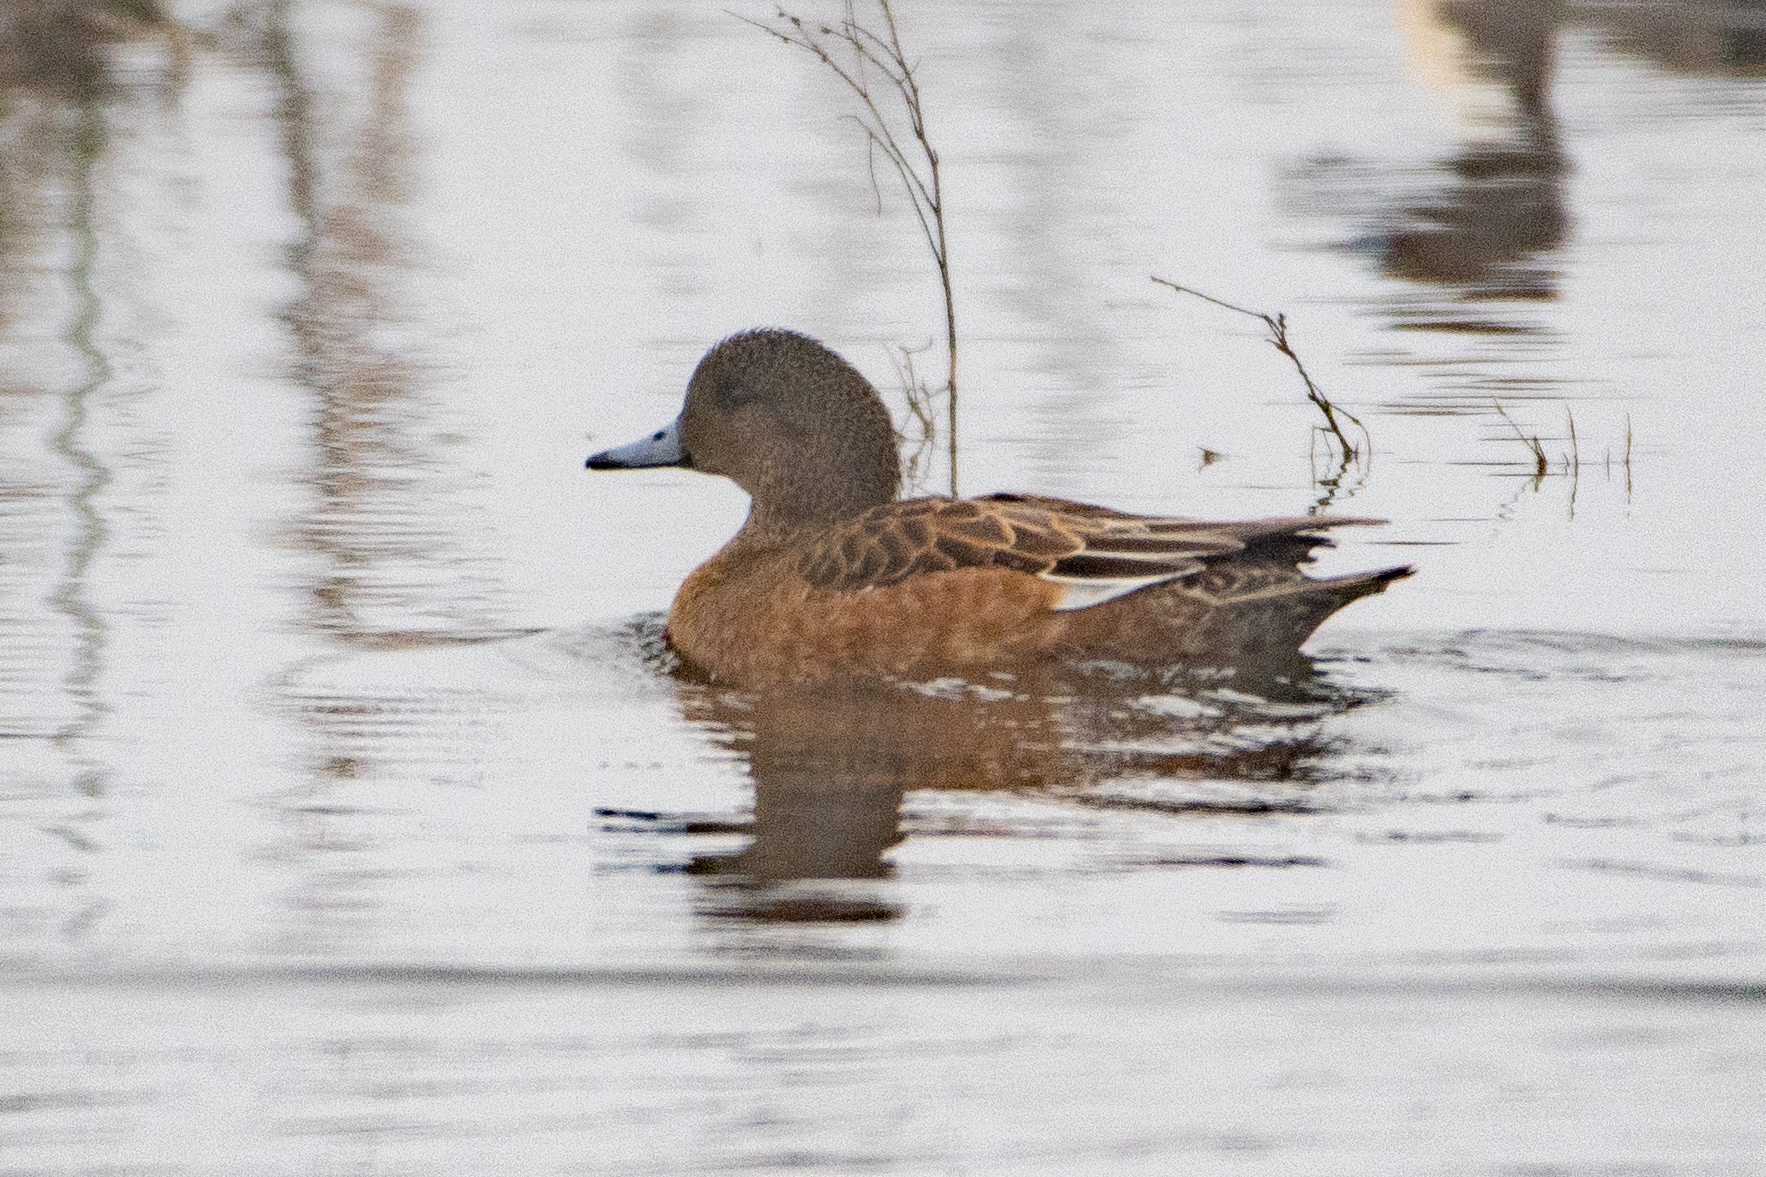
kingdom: Animalia
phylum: Chordata
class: Aves
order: Anseriformes
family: Anatidae
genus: Mareca
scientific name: Mareca americana
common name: American wigeon
